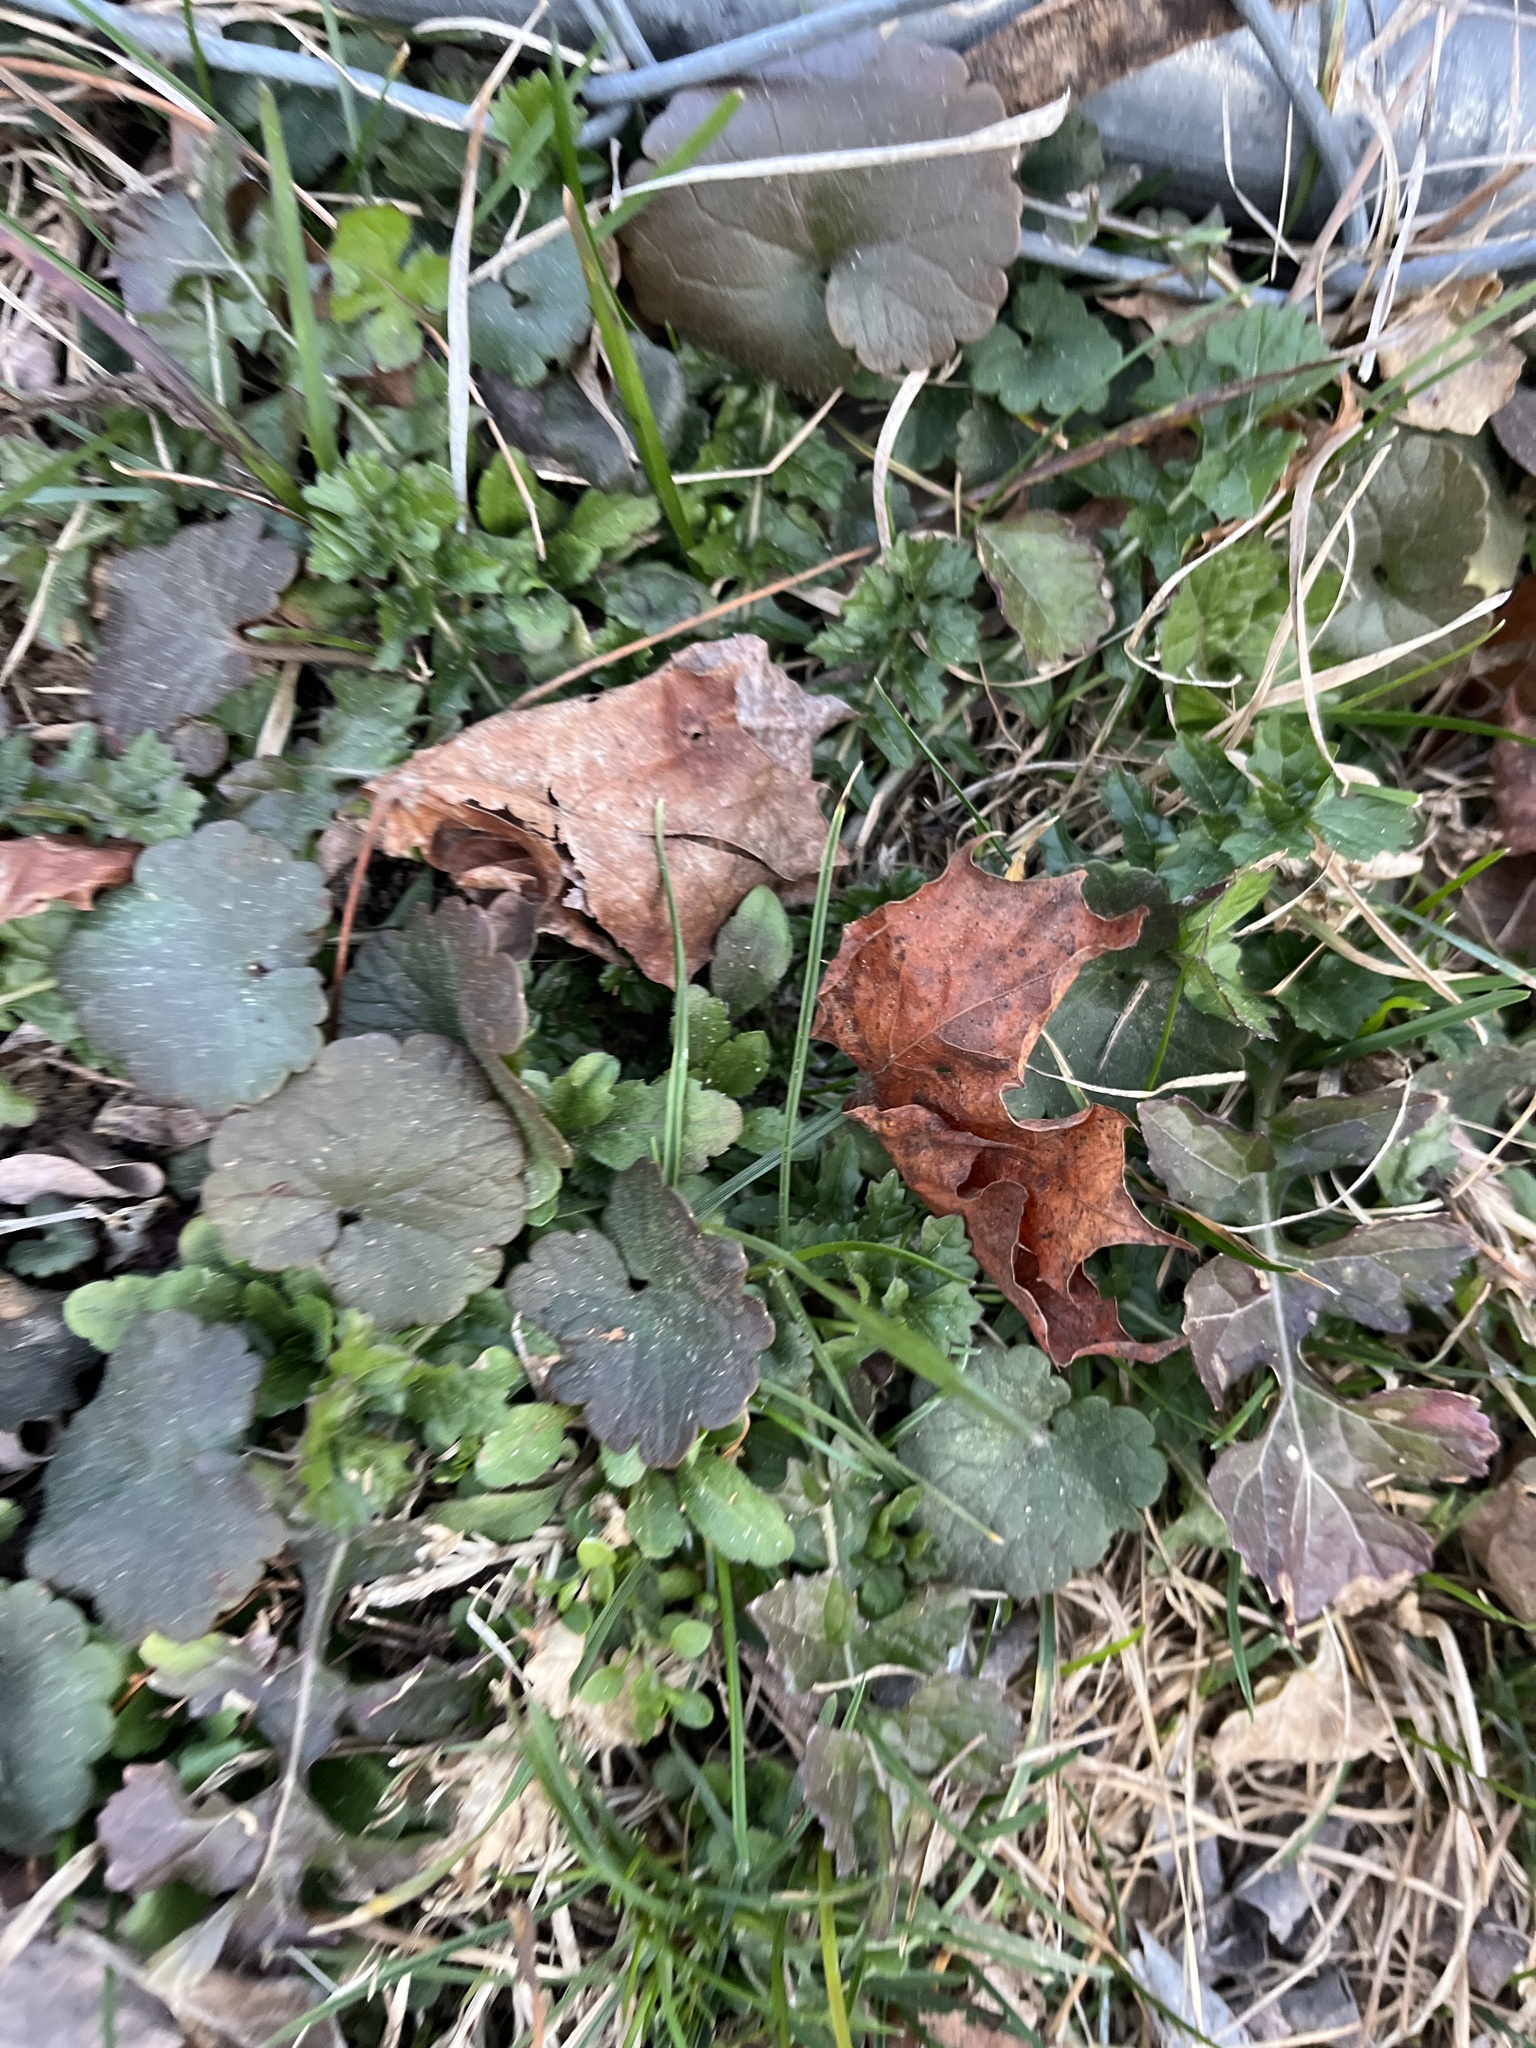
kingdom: Plantae
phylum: Tracheophyta
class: Magnoliopsida
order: Lamiales
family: Lamiaceae
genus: Glechoma
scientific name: Glechoma hederacea
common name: Ground ivy
